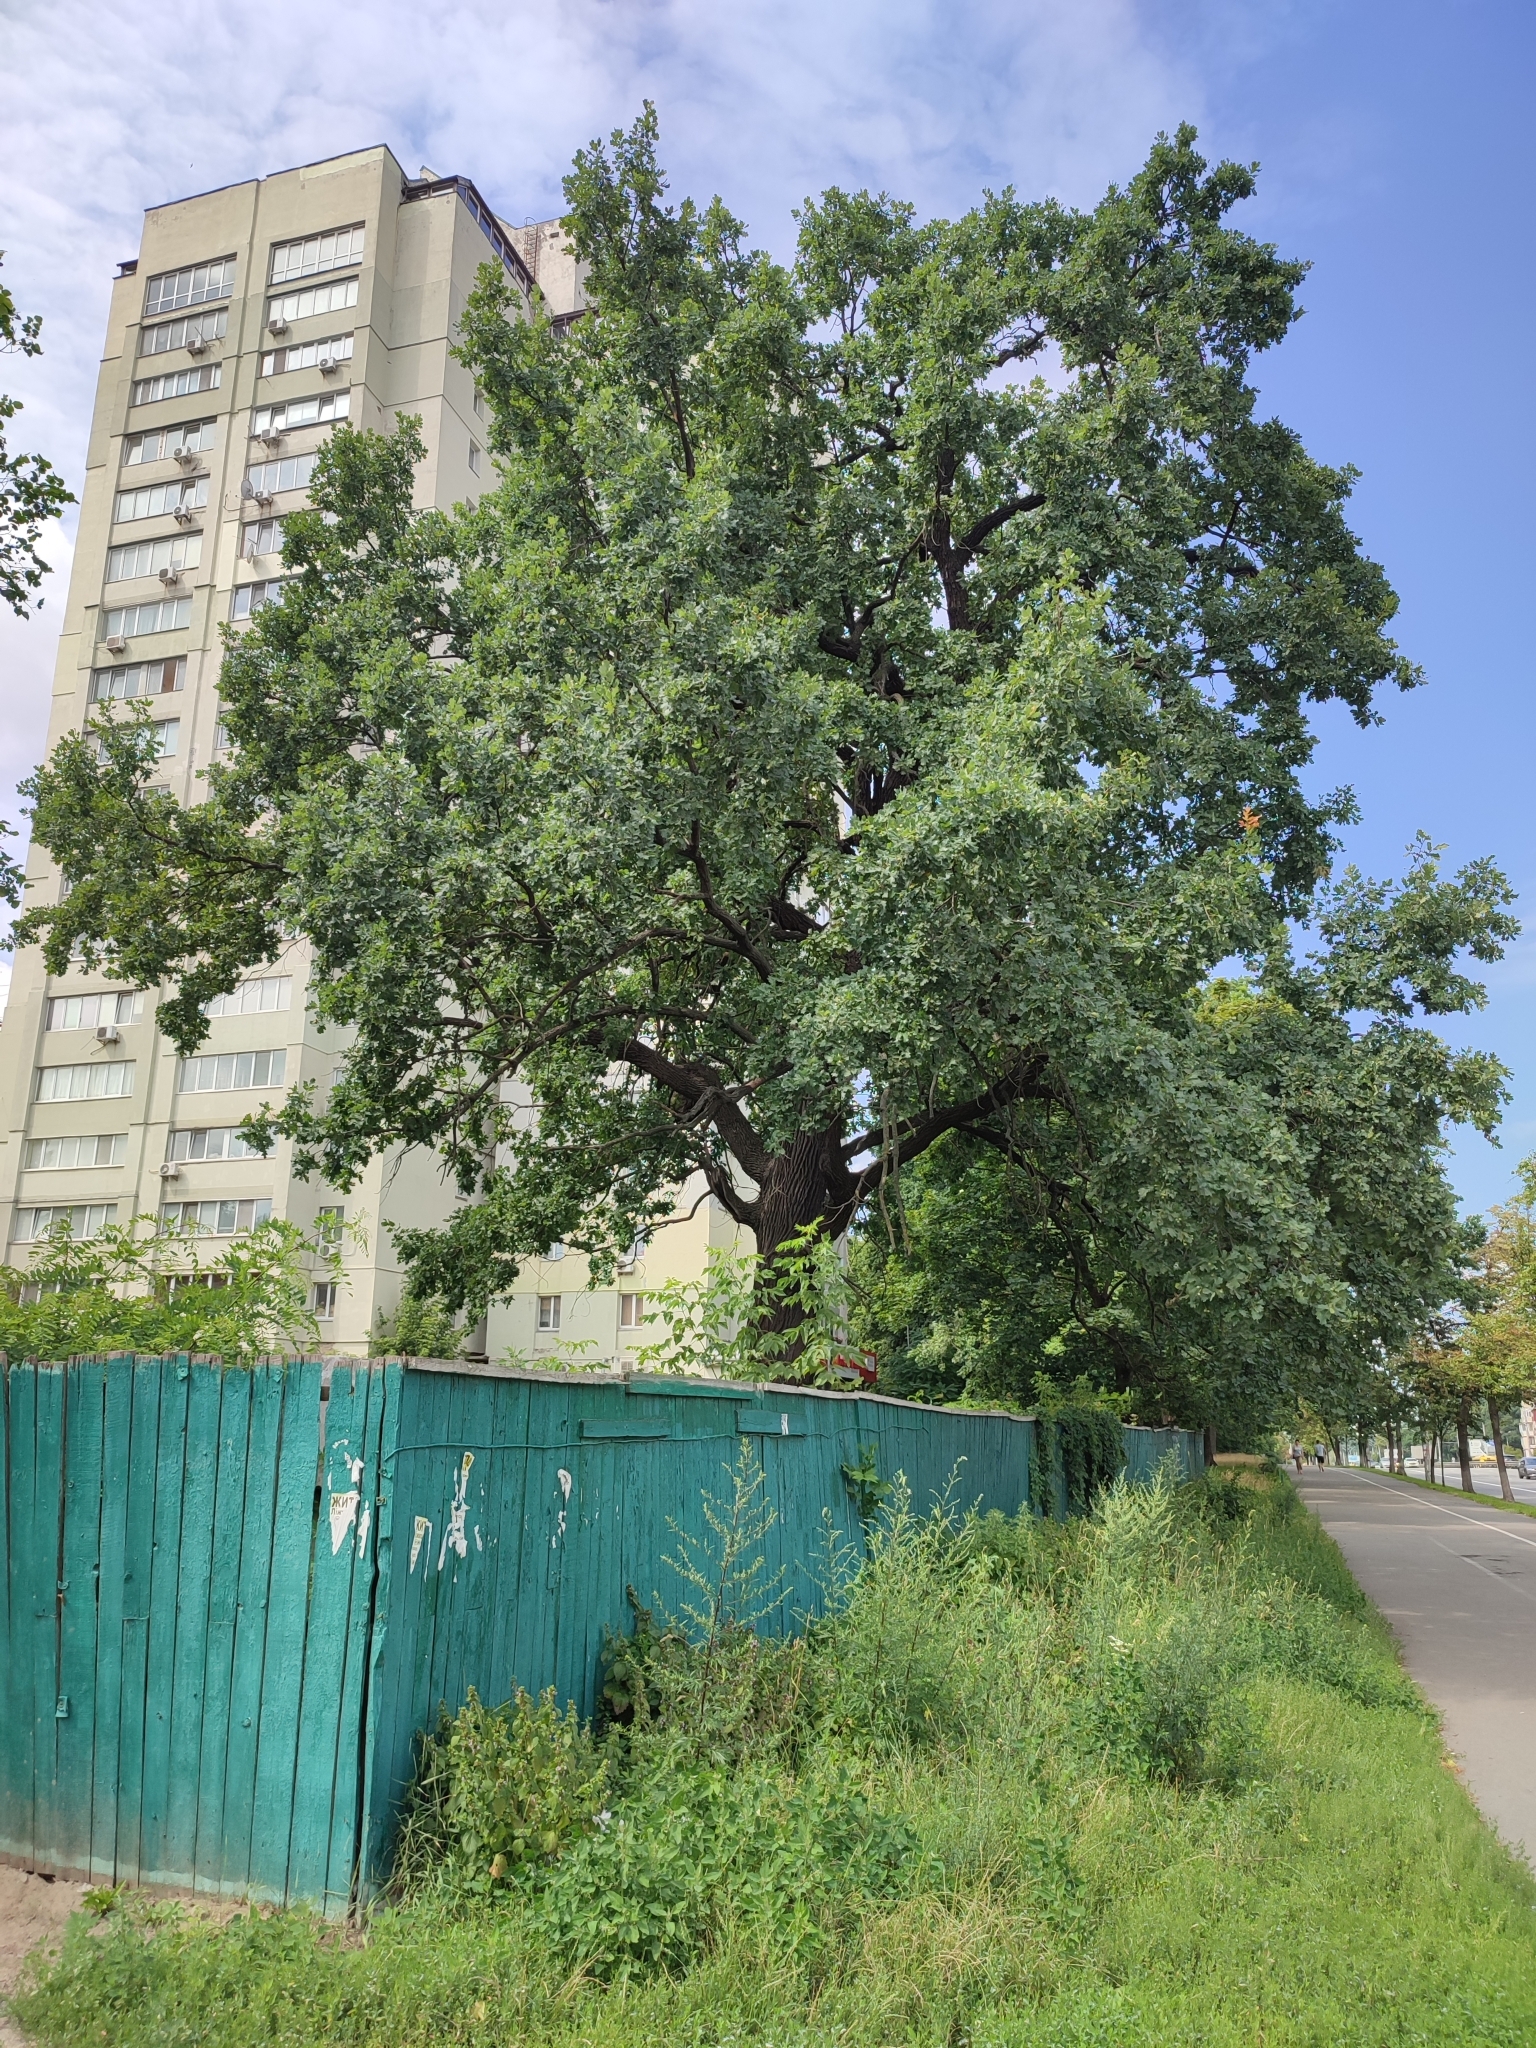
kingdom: Plantae
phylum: Tracheophyta
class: Magnoliopsida
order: Fagales
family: Fagaceae
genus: Quercus
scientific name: Quercus robur
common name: Pedunculate oak
